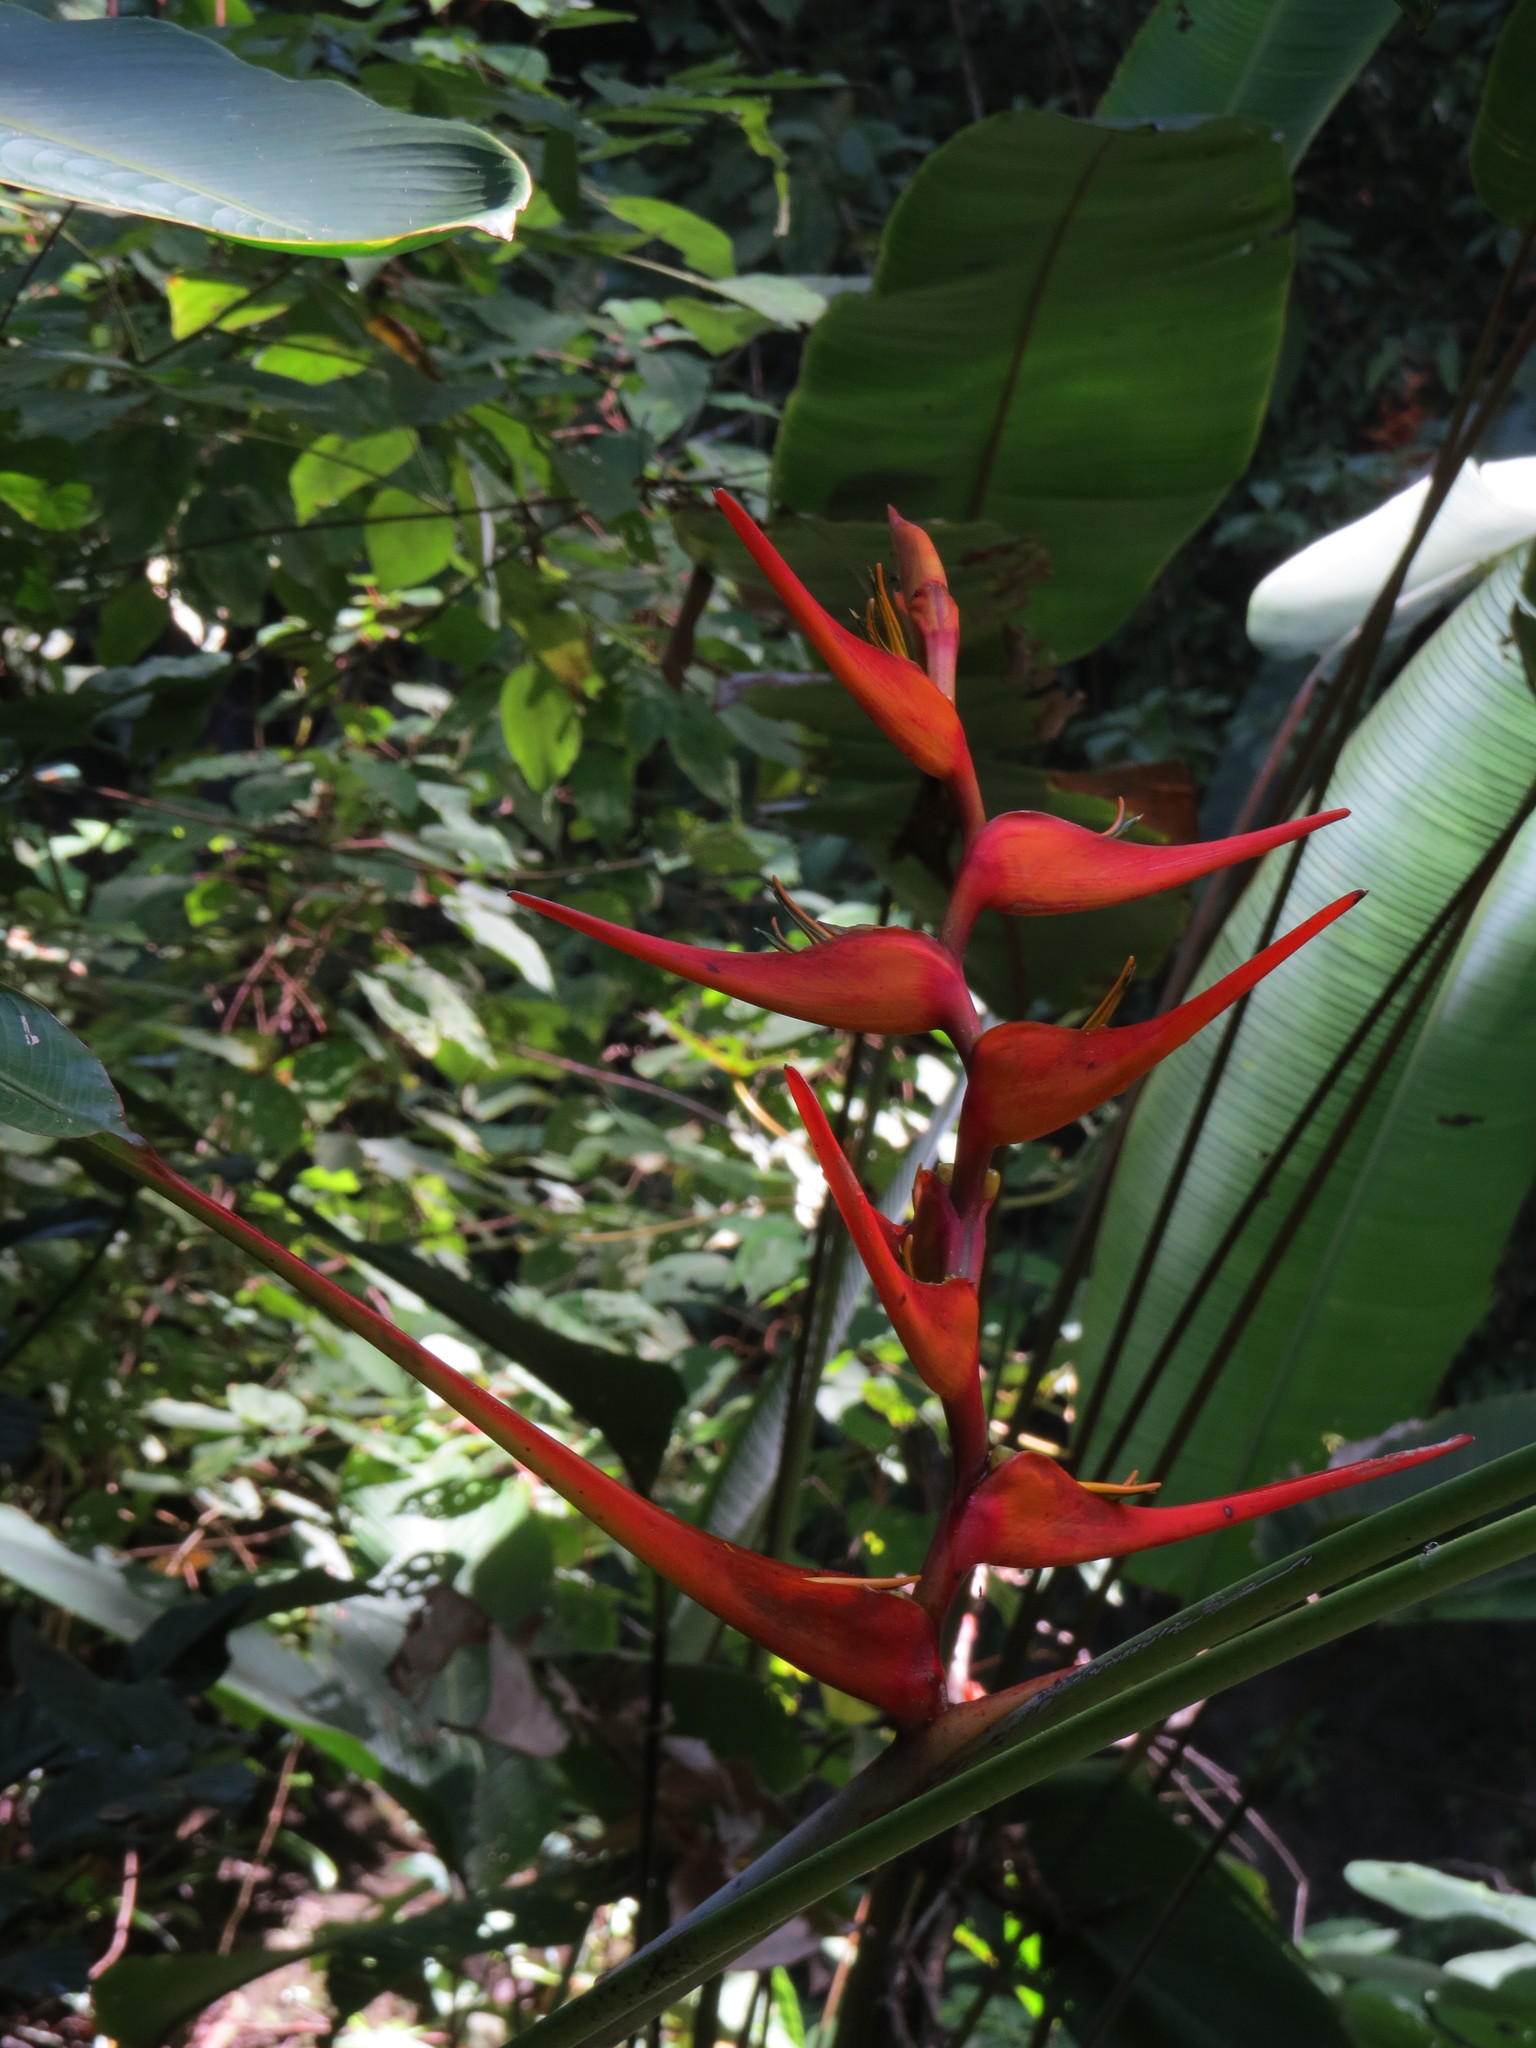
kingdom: Plantae
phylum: Tracheophyta
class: Liliopsida
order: Zingiberales
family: Heliconiaceae
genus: Heliconia
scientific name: Heliconia latispatha
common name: Expanded lobsterclaw
